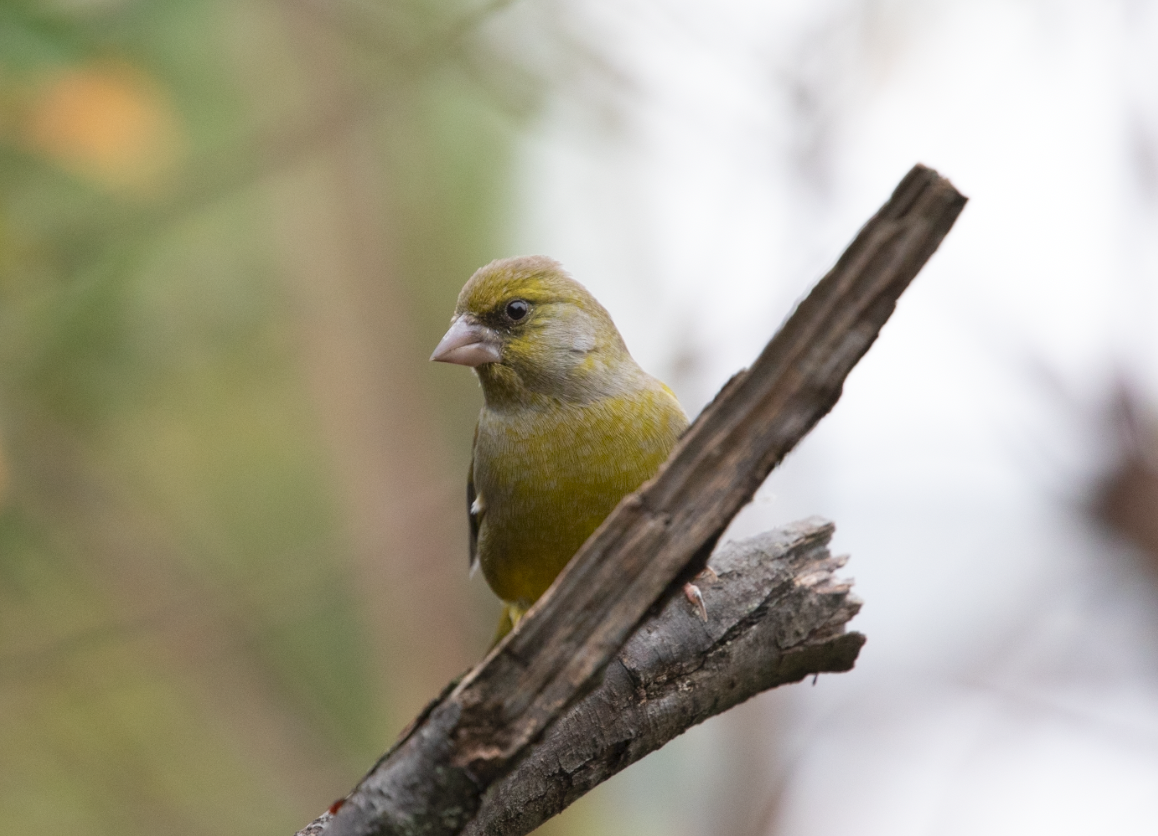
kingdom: Plantae
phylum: Tracheophyta
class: Liliopsida
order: Poales
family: Poaceae
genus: Chloris
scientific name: Chloris chloris
